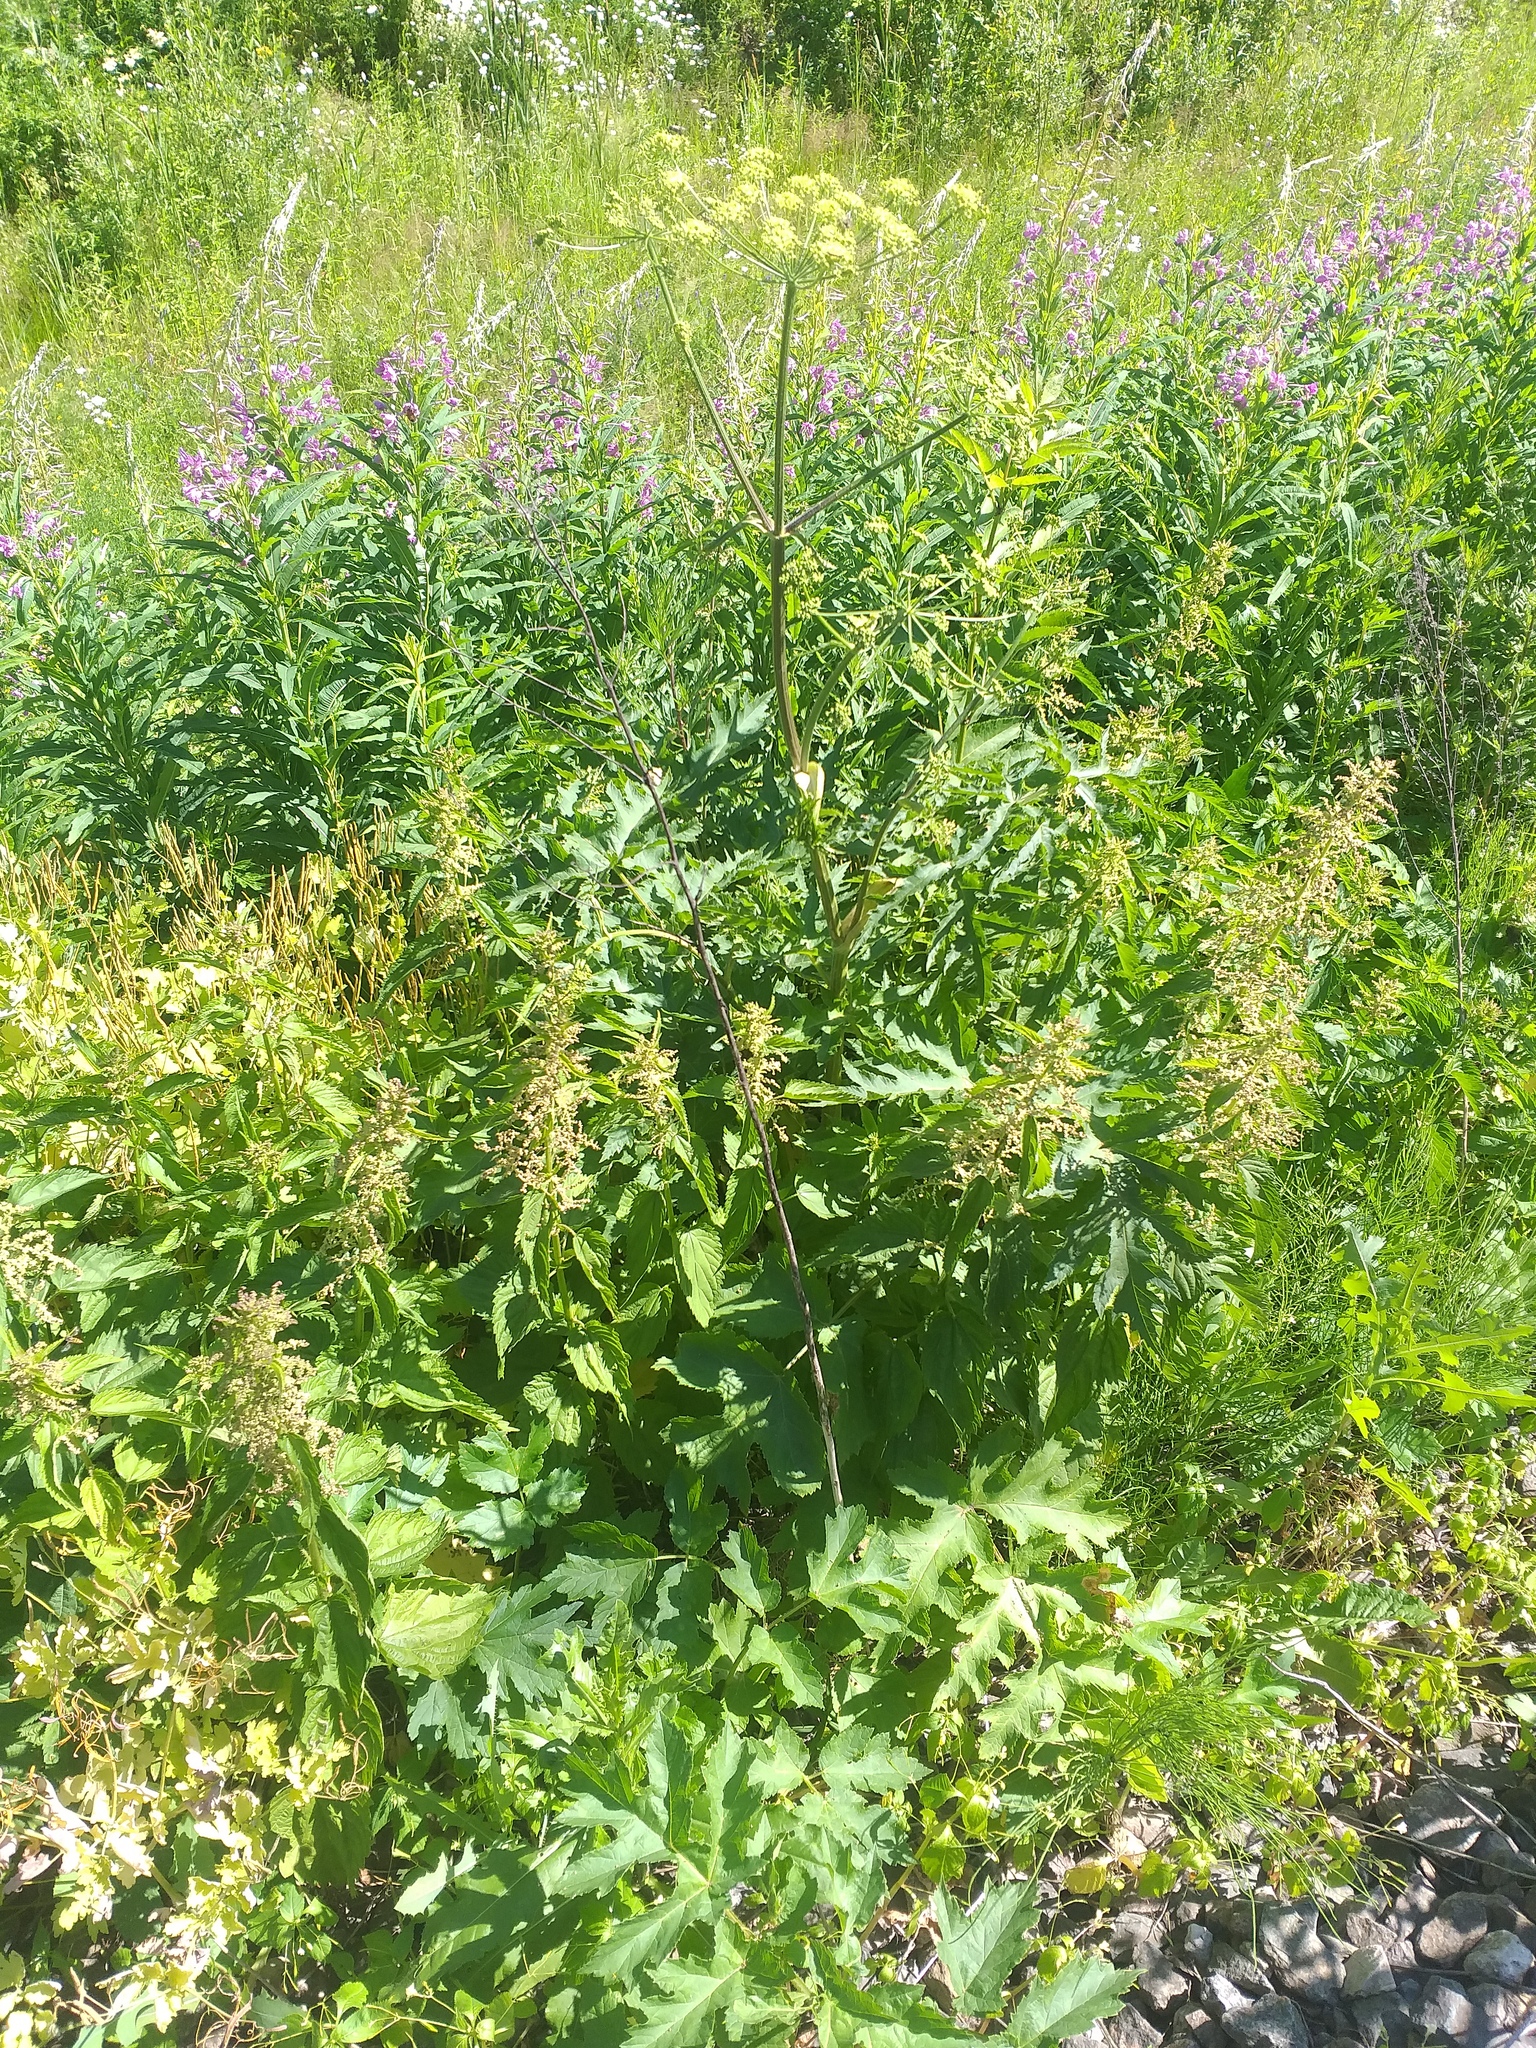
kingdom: Plantae
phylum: Tracheophyta
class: Magnoliopsida
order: Rosales
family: Urticaceae
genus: Urtica
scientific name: Urtica dioica
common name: Common nettle
